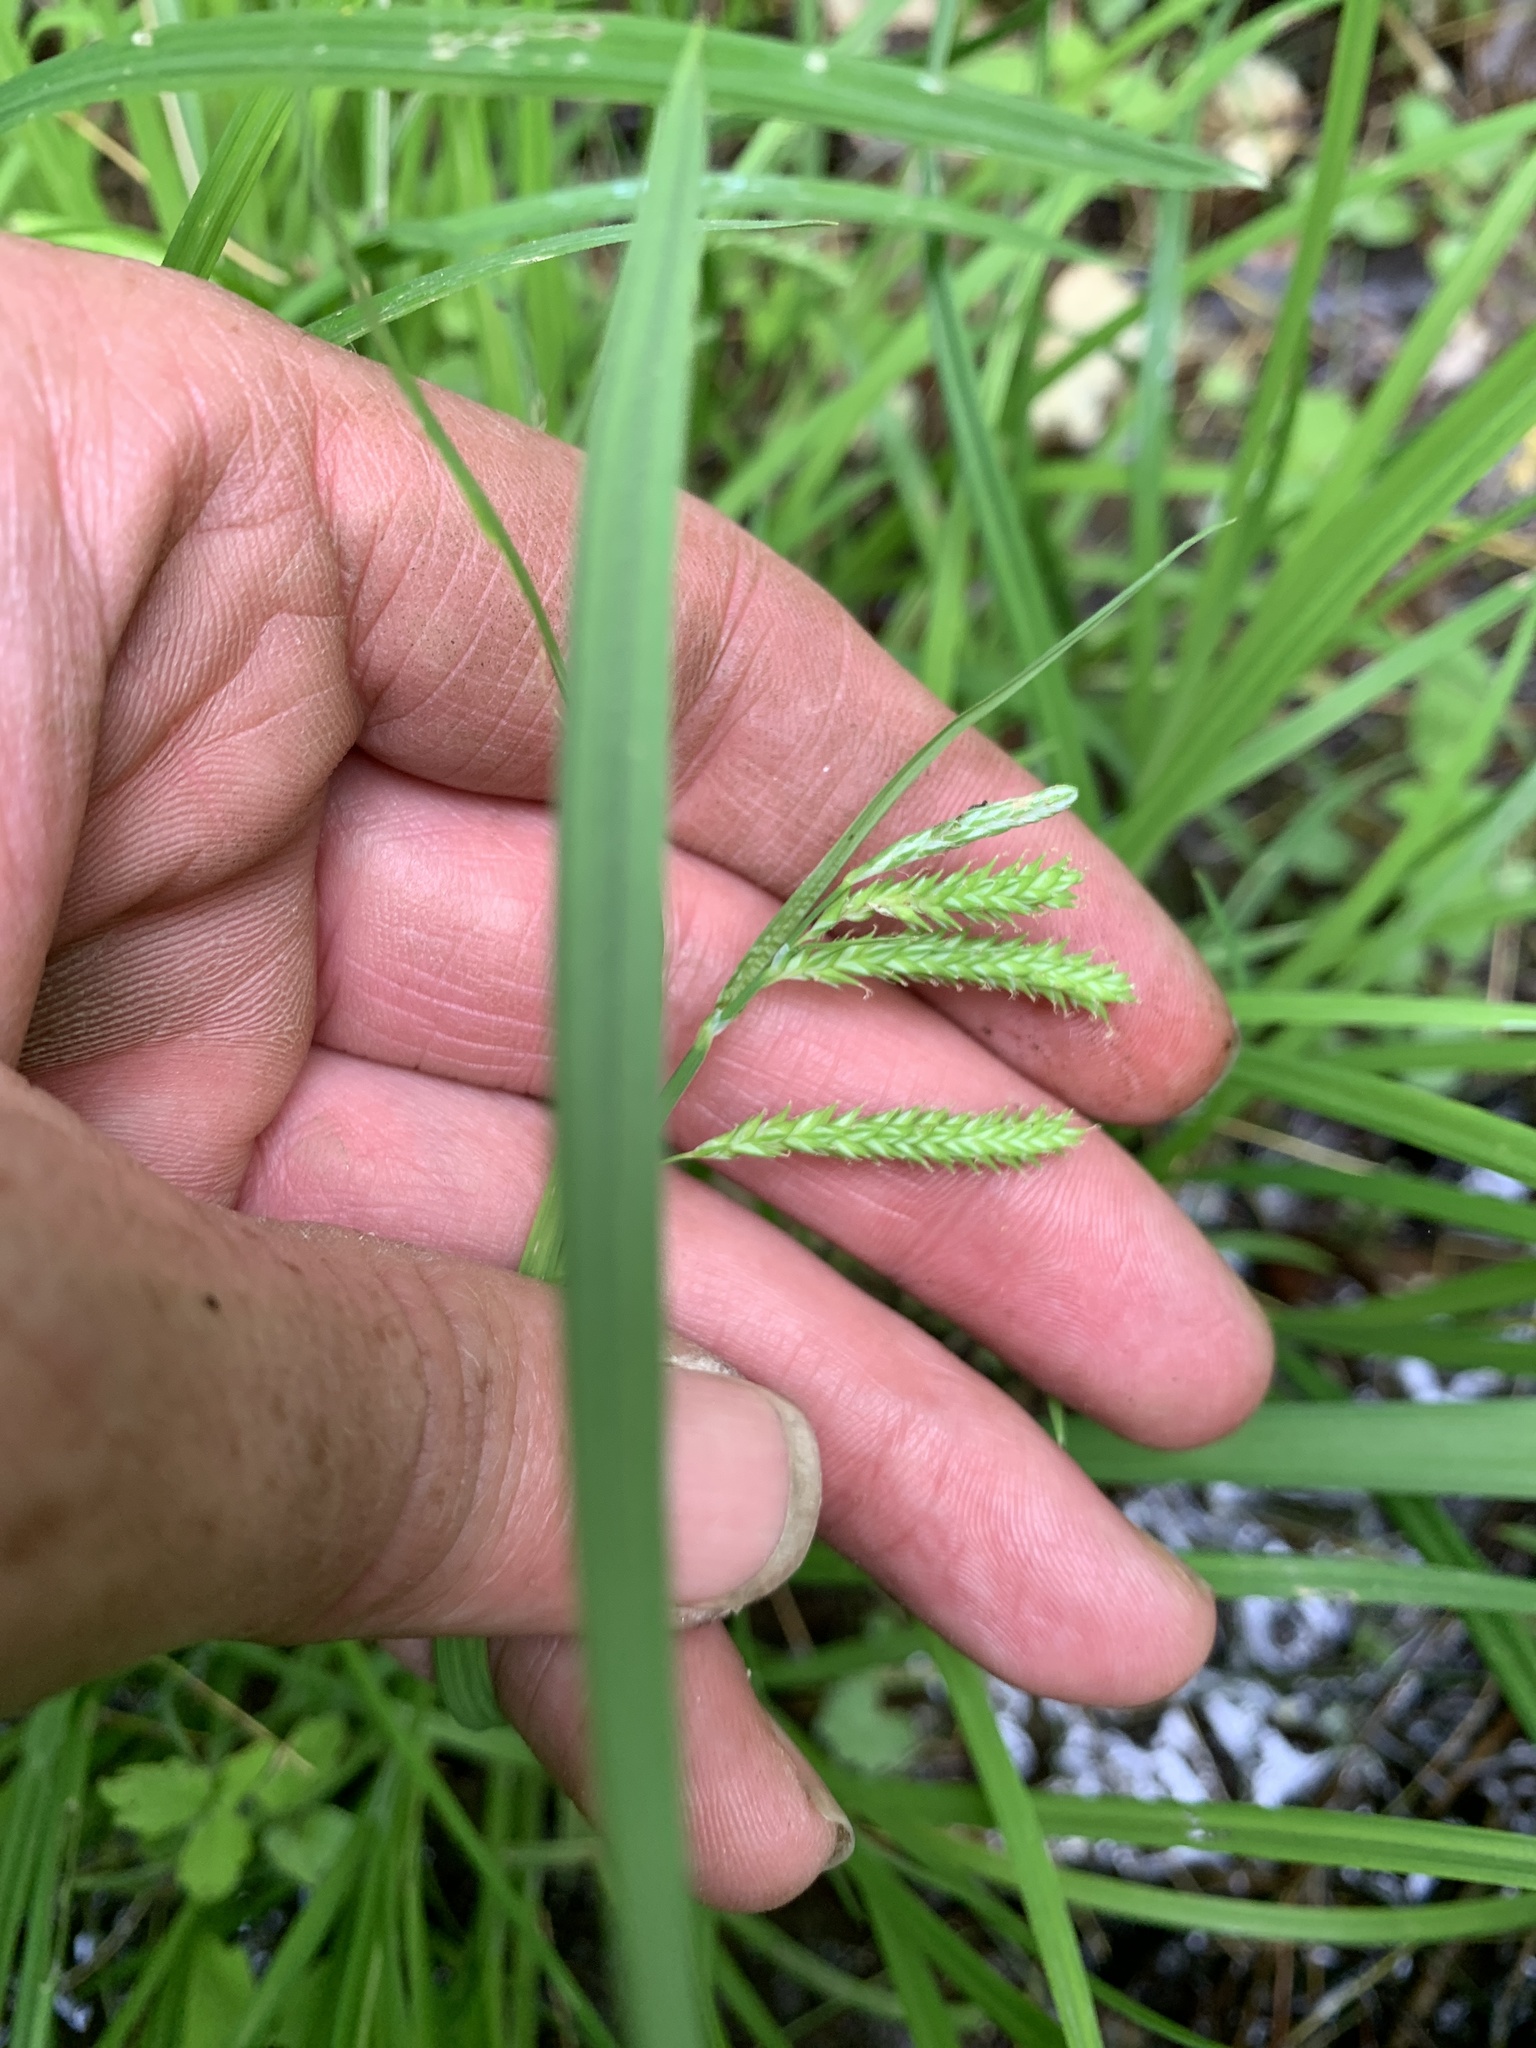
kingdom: Plantae
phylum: Tracheophyta
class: Liliopsida
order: Poales
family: Cyperaceae
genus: Carex
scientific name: Carex crinita
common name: Fringed sedge
